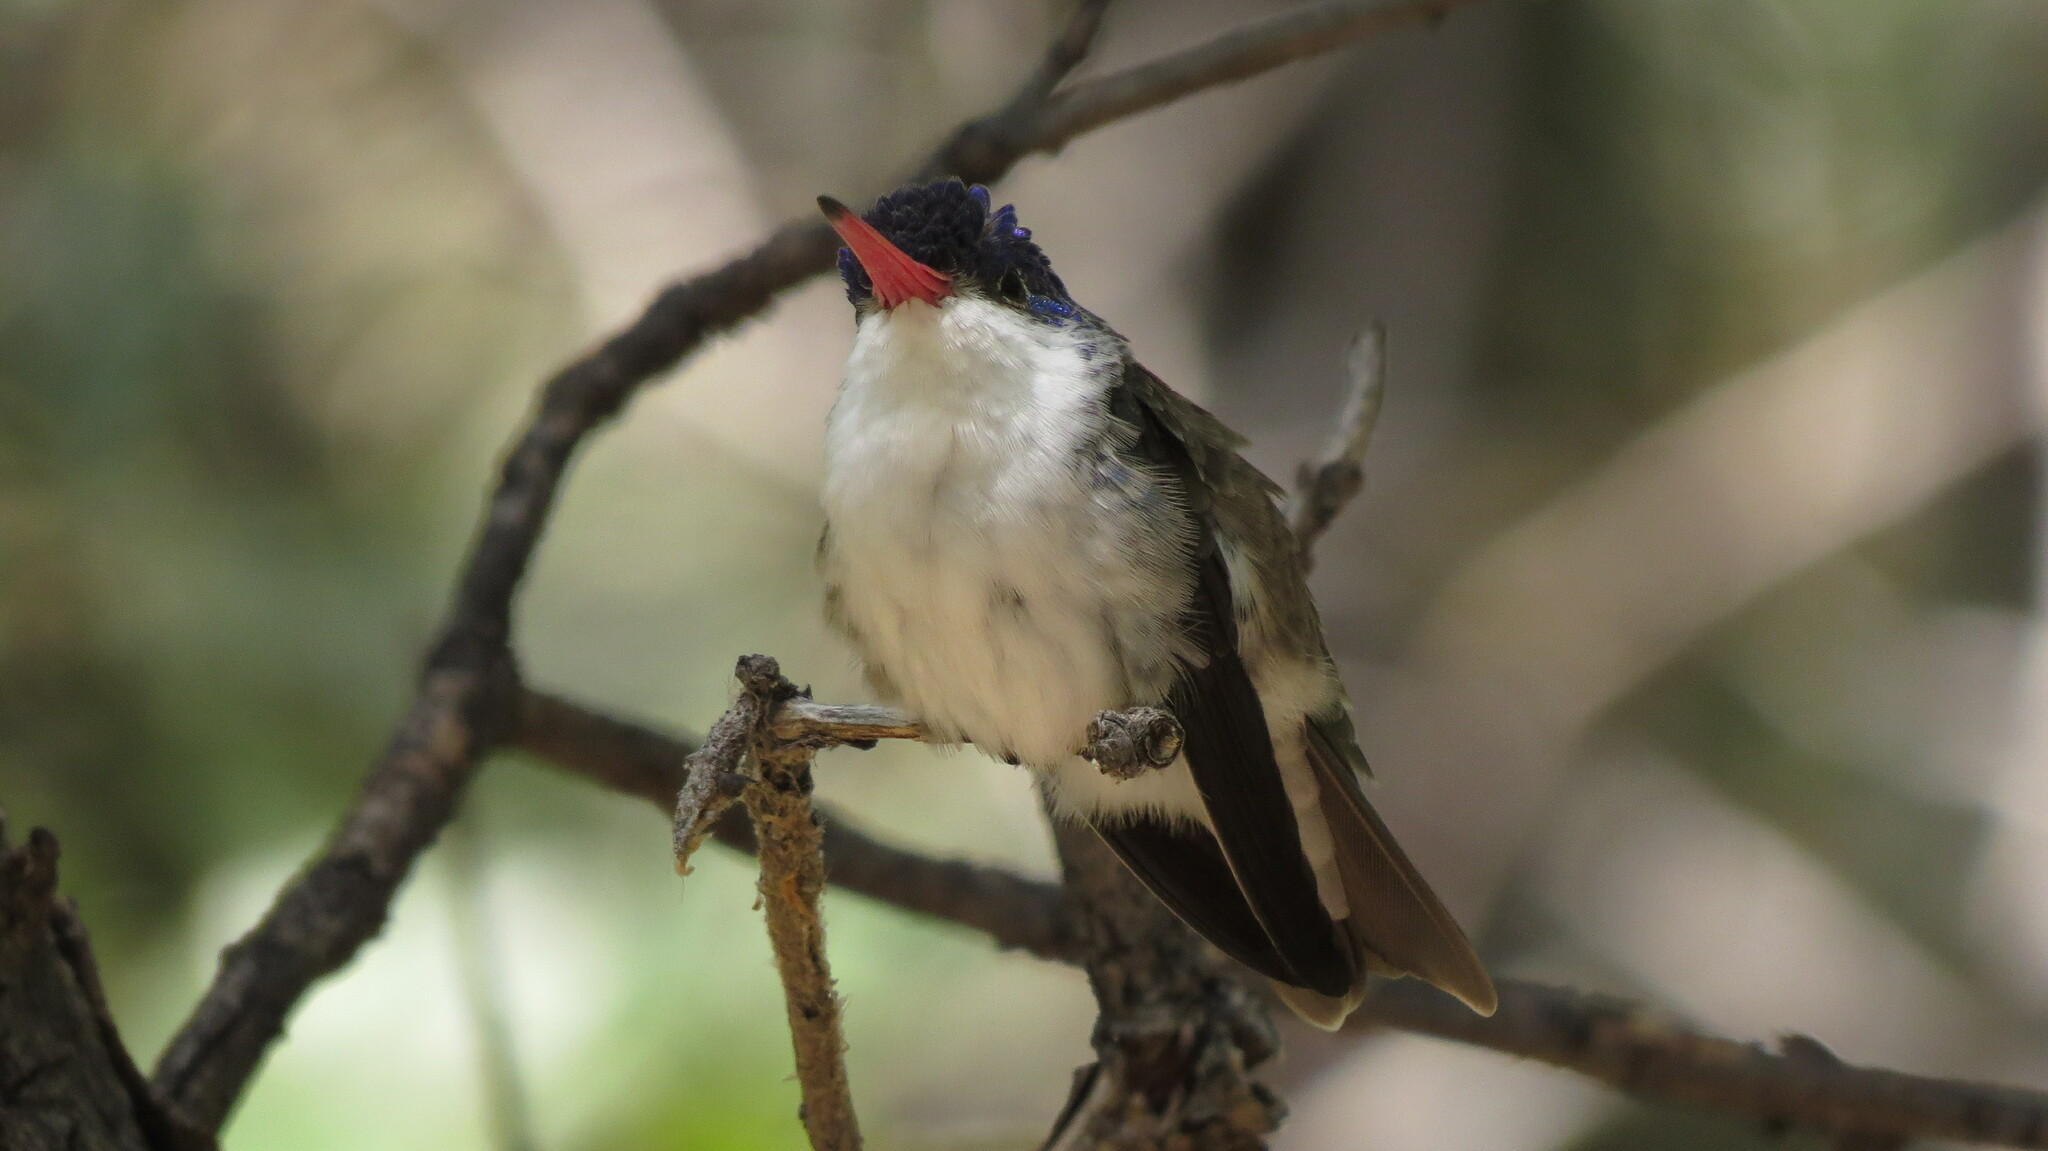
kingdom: Animalia
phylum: Chordata
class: Aves
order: Apodiformes
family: Trochilidae
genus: Leucolia
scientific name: Leucolia violiceps
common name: Violet-crowned hummingbird
